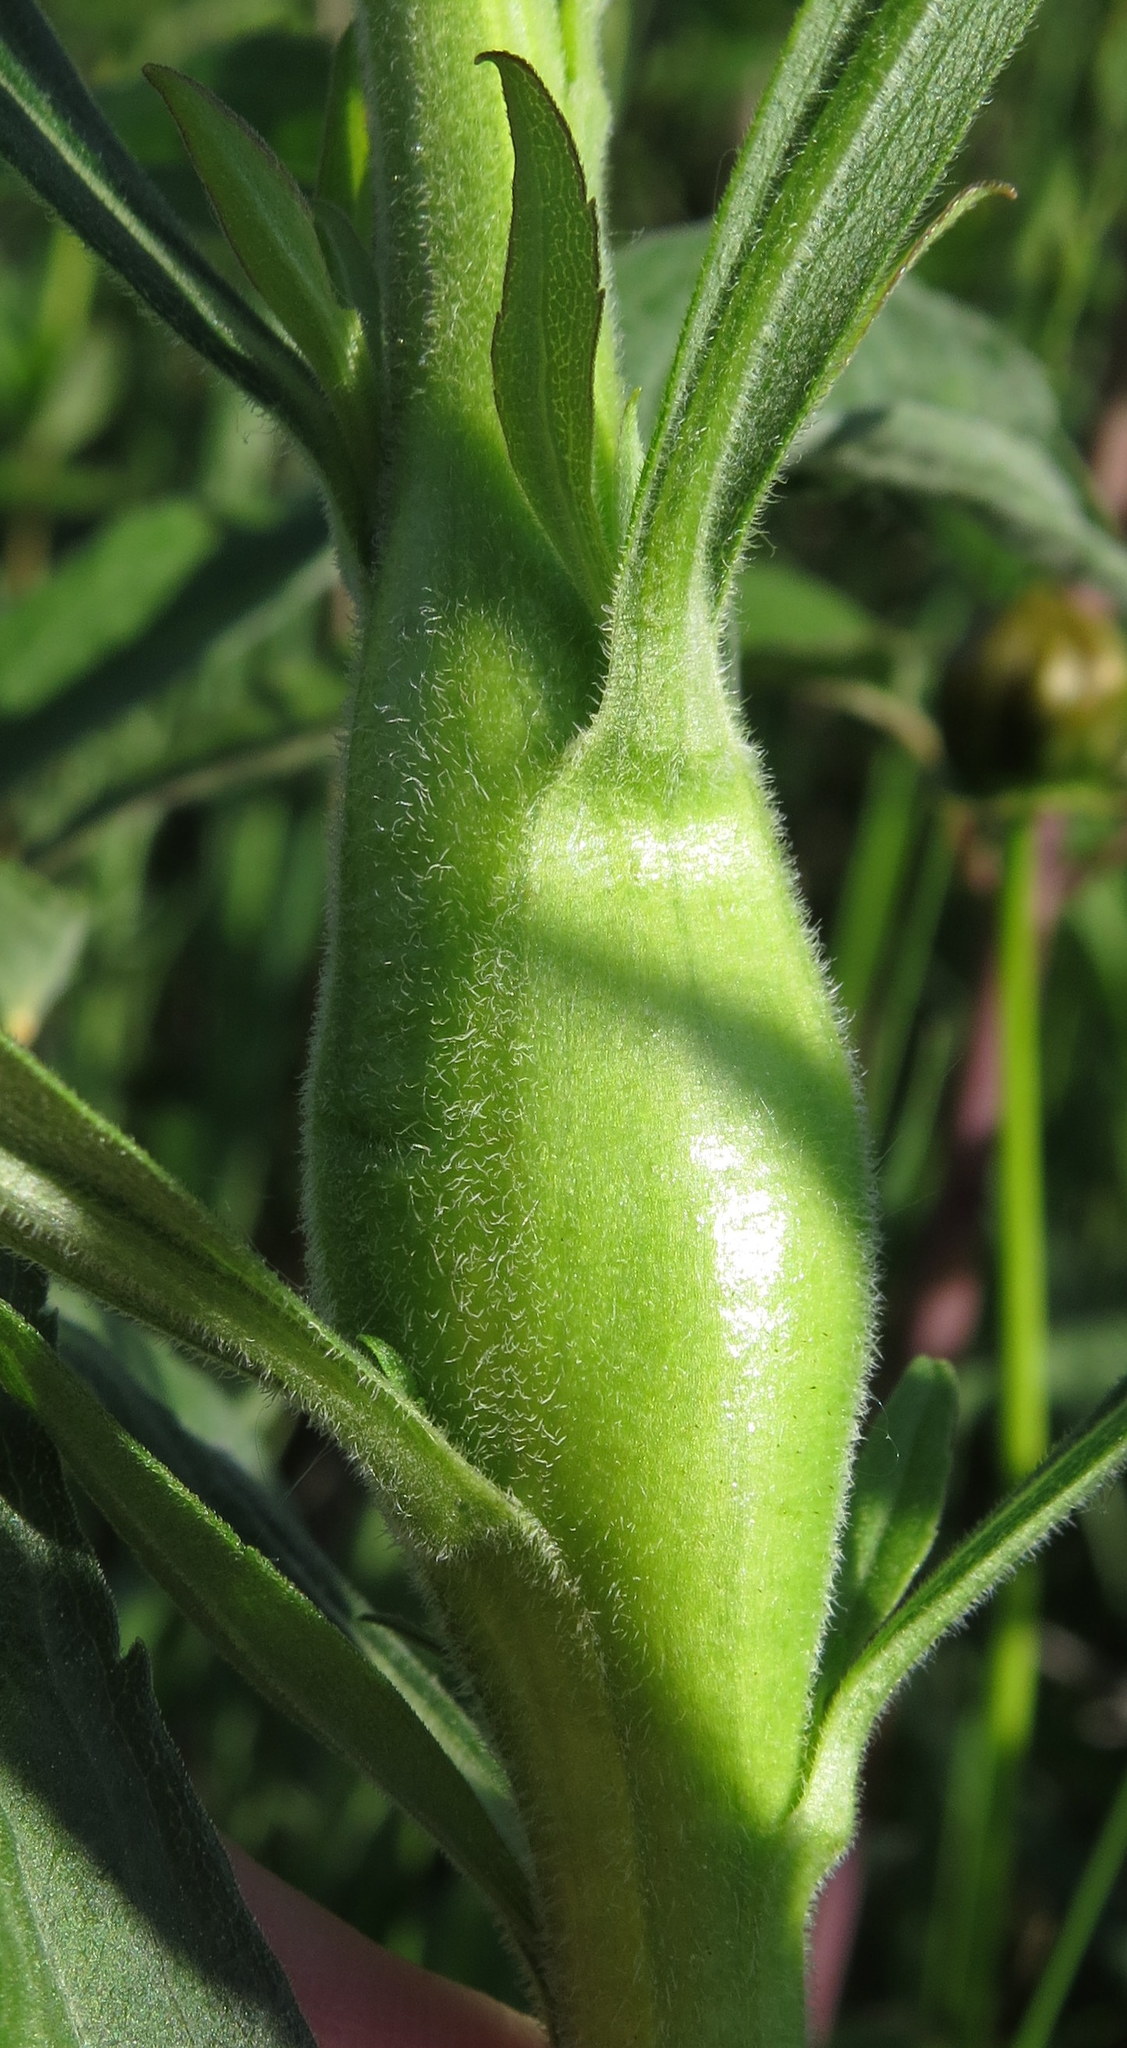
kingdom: Animalia
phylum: Arthropoda
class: Insecta
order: Lepidoptera
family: Gelechiidae
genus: Gnorimoschema
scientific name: Gnorimoschema gallaesolidaginis
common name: Goldenrod elliptical-gall moth
